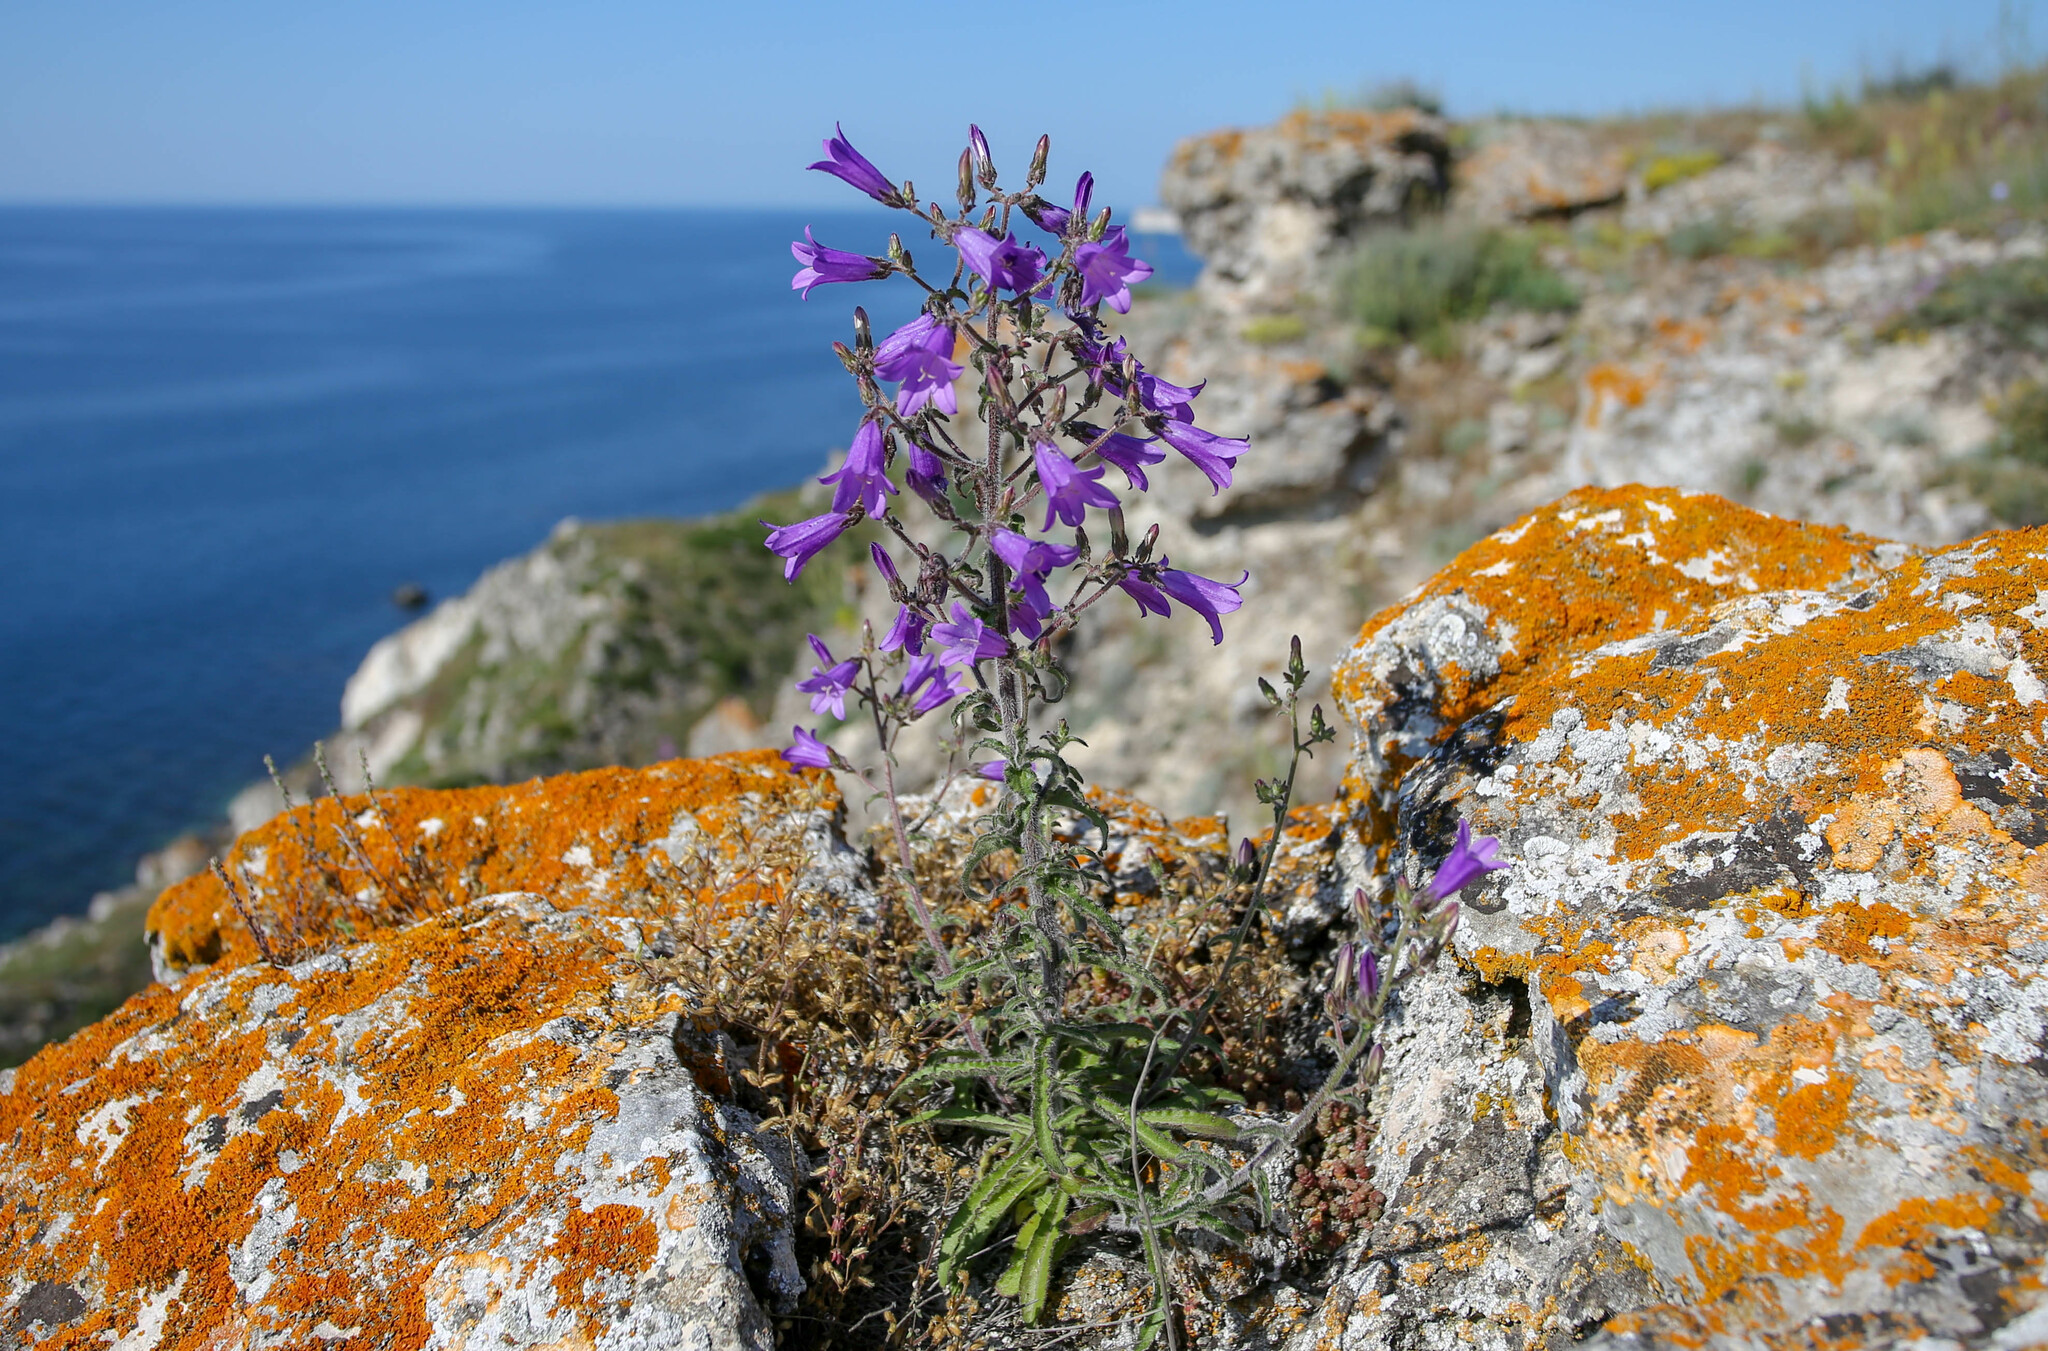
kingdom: Plantae
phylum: Tracheophyta
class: Magnoliopsida
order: Asterales
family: Campanulaceae
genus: Campanula
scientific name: Campanula sibirica
